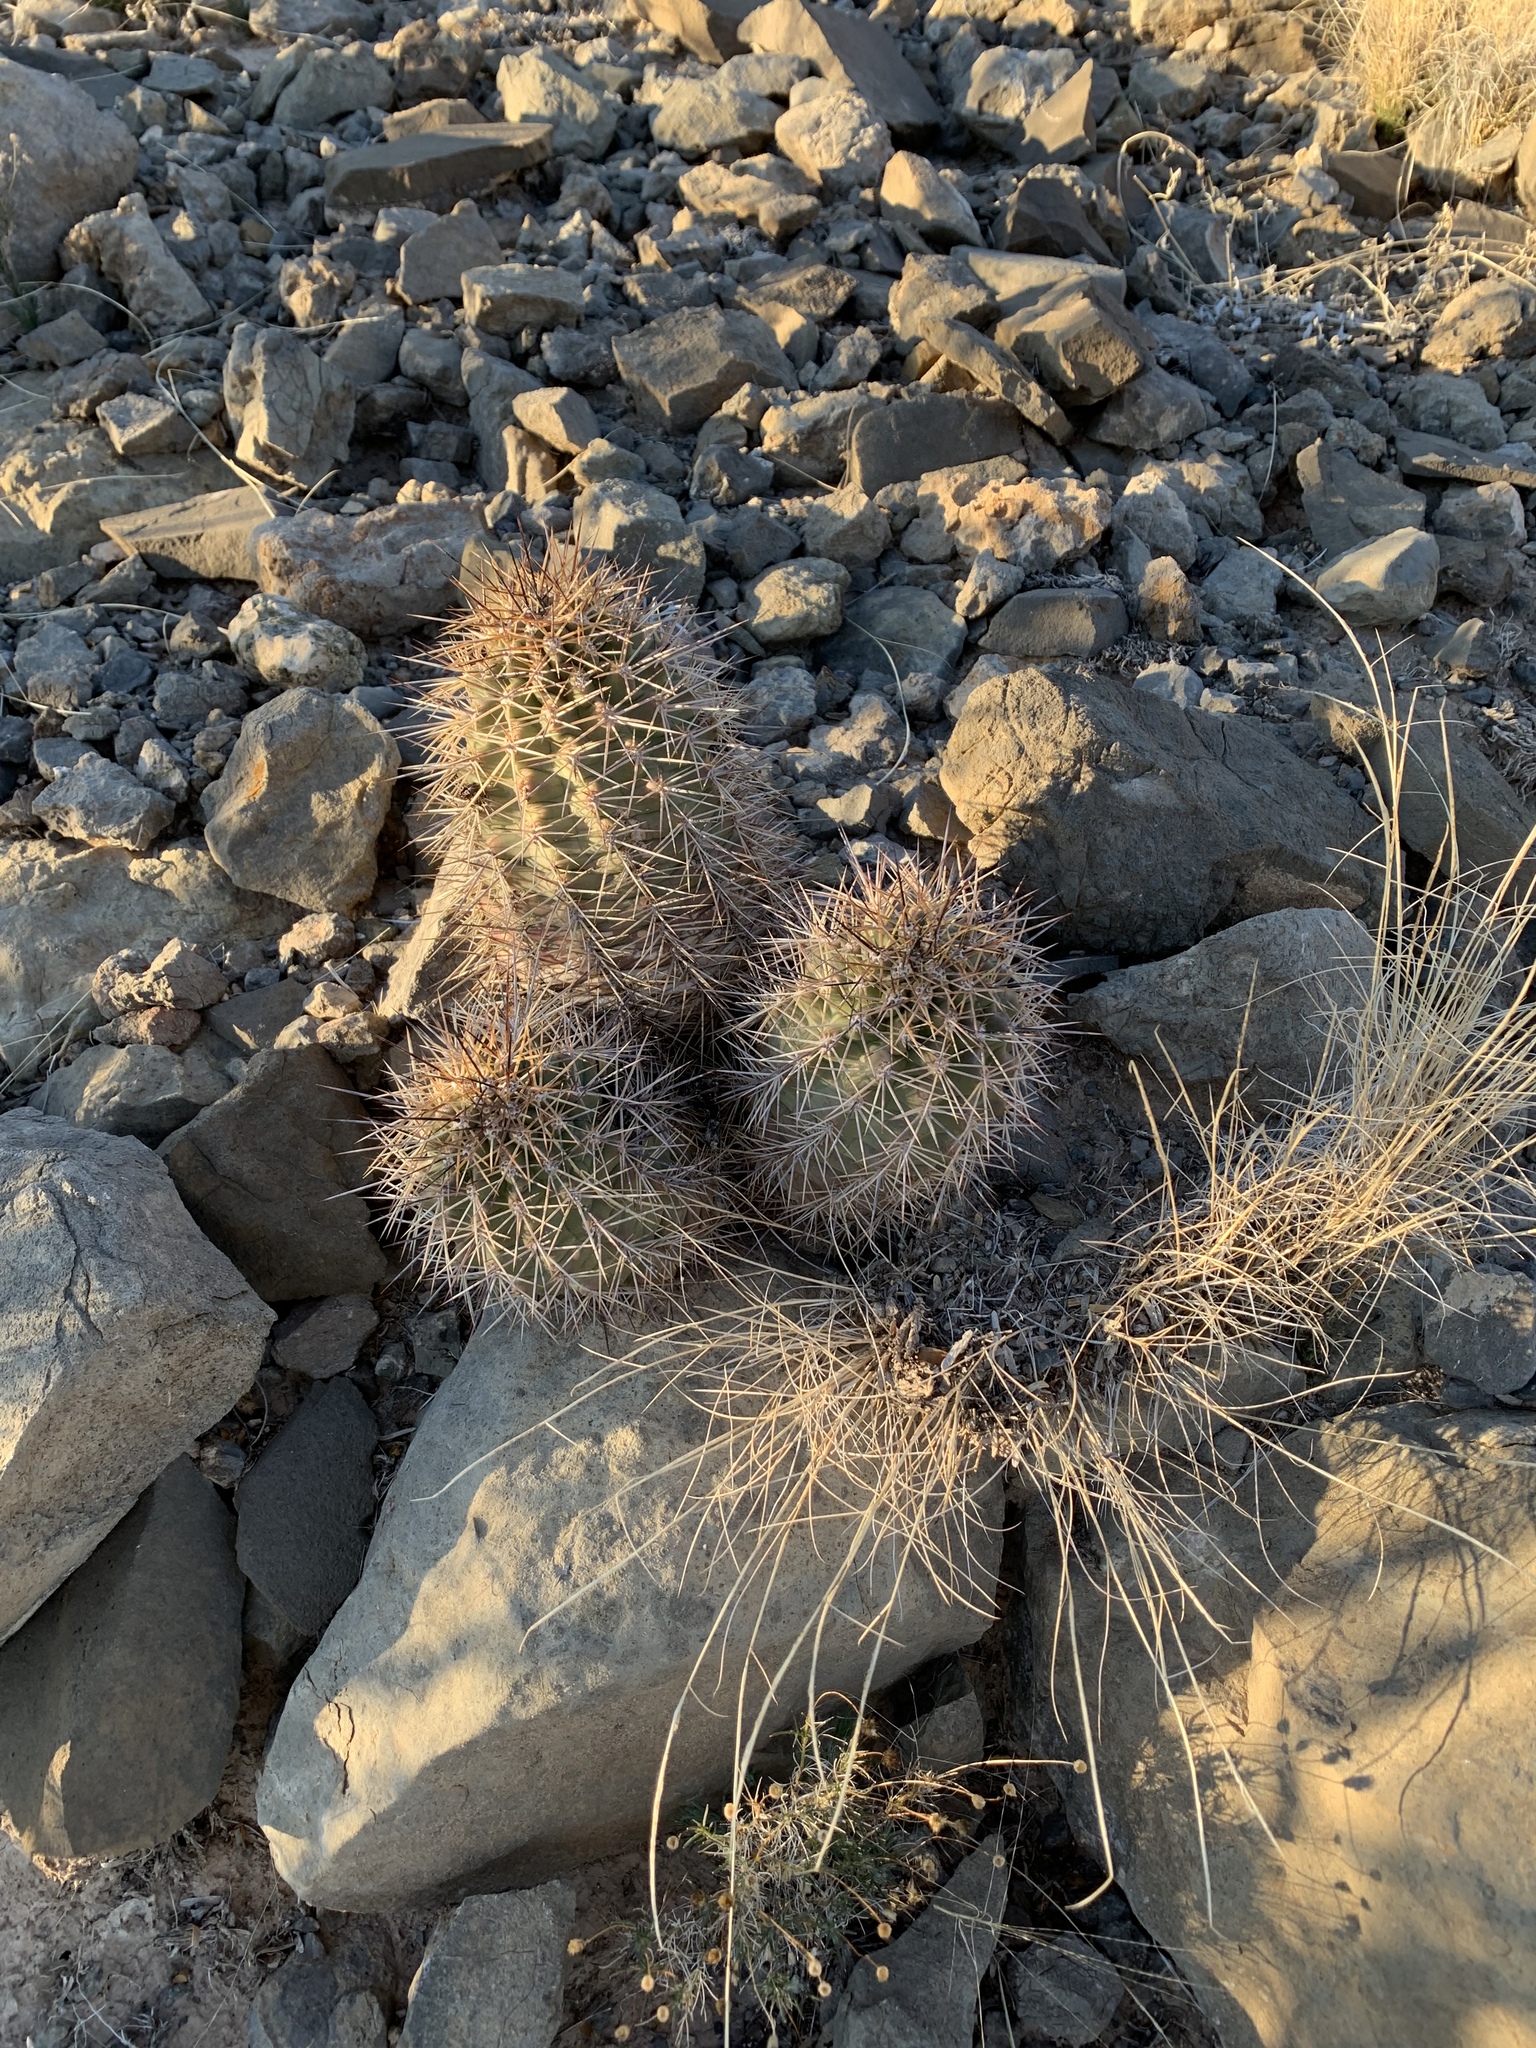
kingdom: Plantae
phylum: Tracheophyta
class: Magnoliopsida
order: Caryophyllales
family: Cactaceae
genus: Echinocereus
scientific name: Echinocereus coccineus
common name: Scarlet hedgehog cactus
